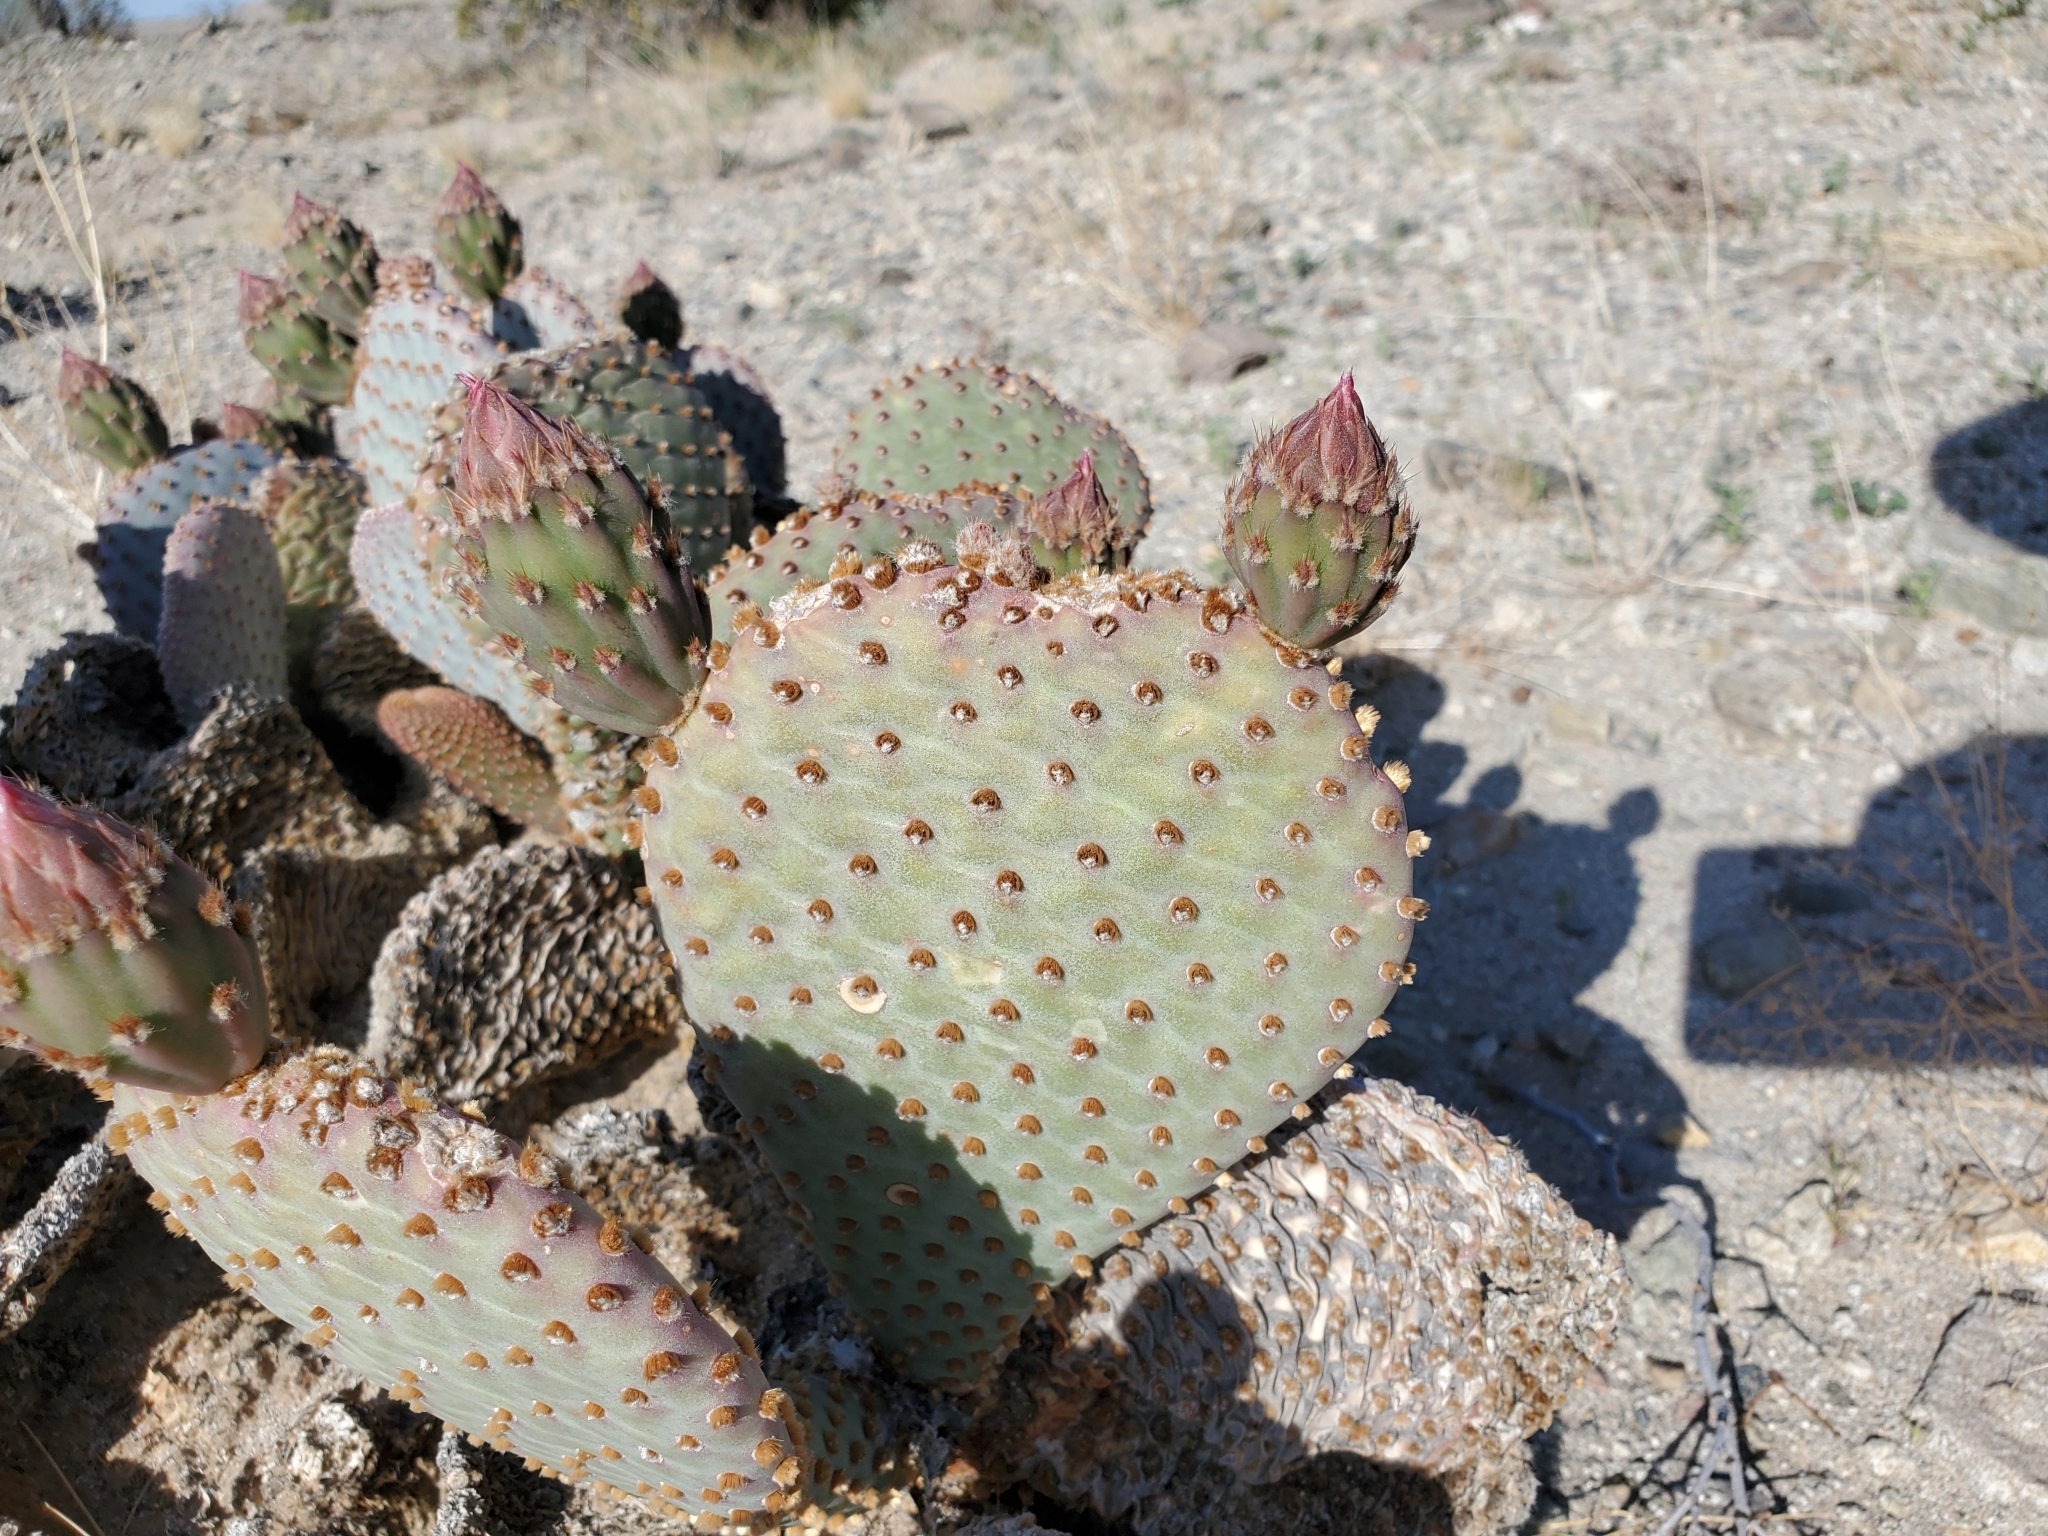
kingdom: Plantae
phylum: Tracheophyta
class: Magnoliopsida
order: Caryophyllales
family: Cactaceae
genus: Opuntia
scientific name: Opuntia basilaris
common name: Beavertail prickly-pear
